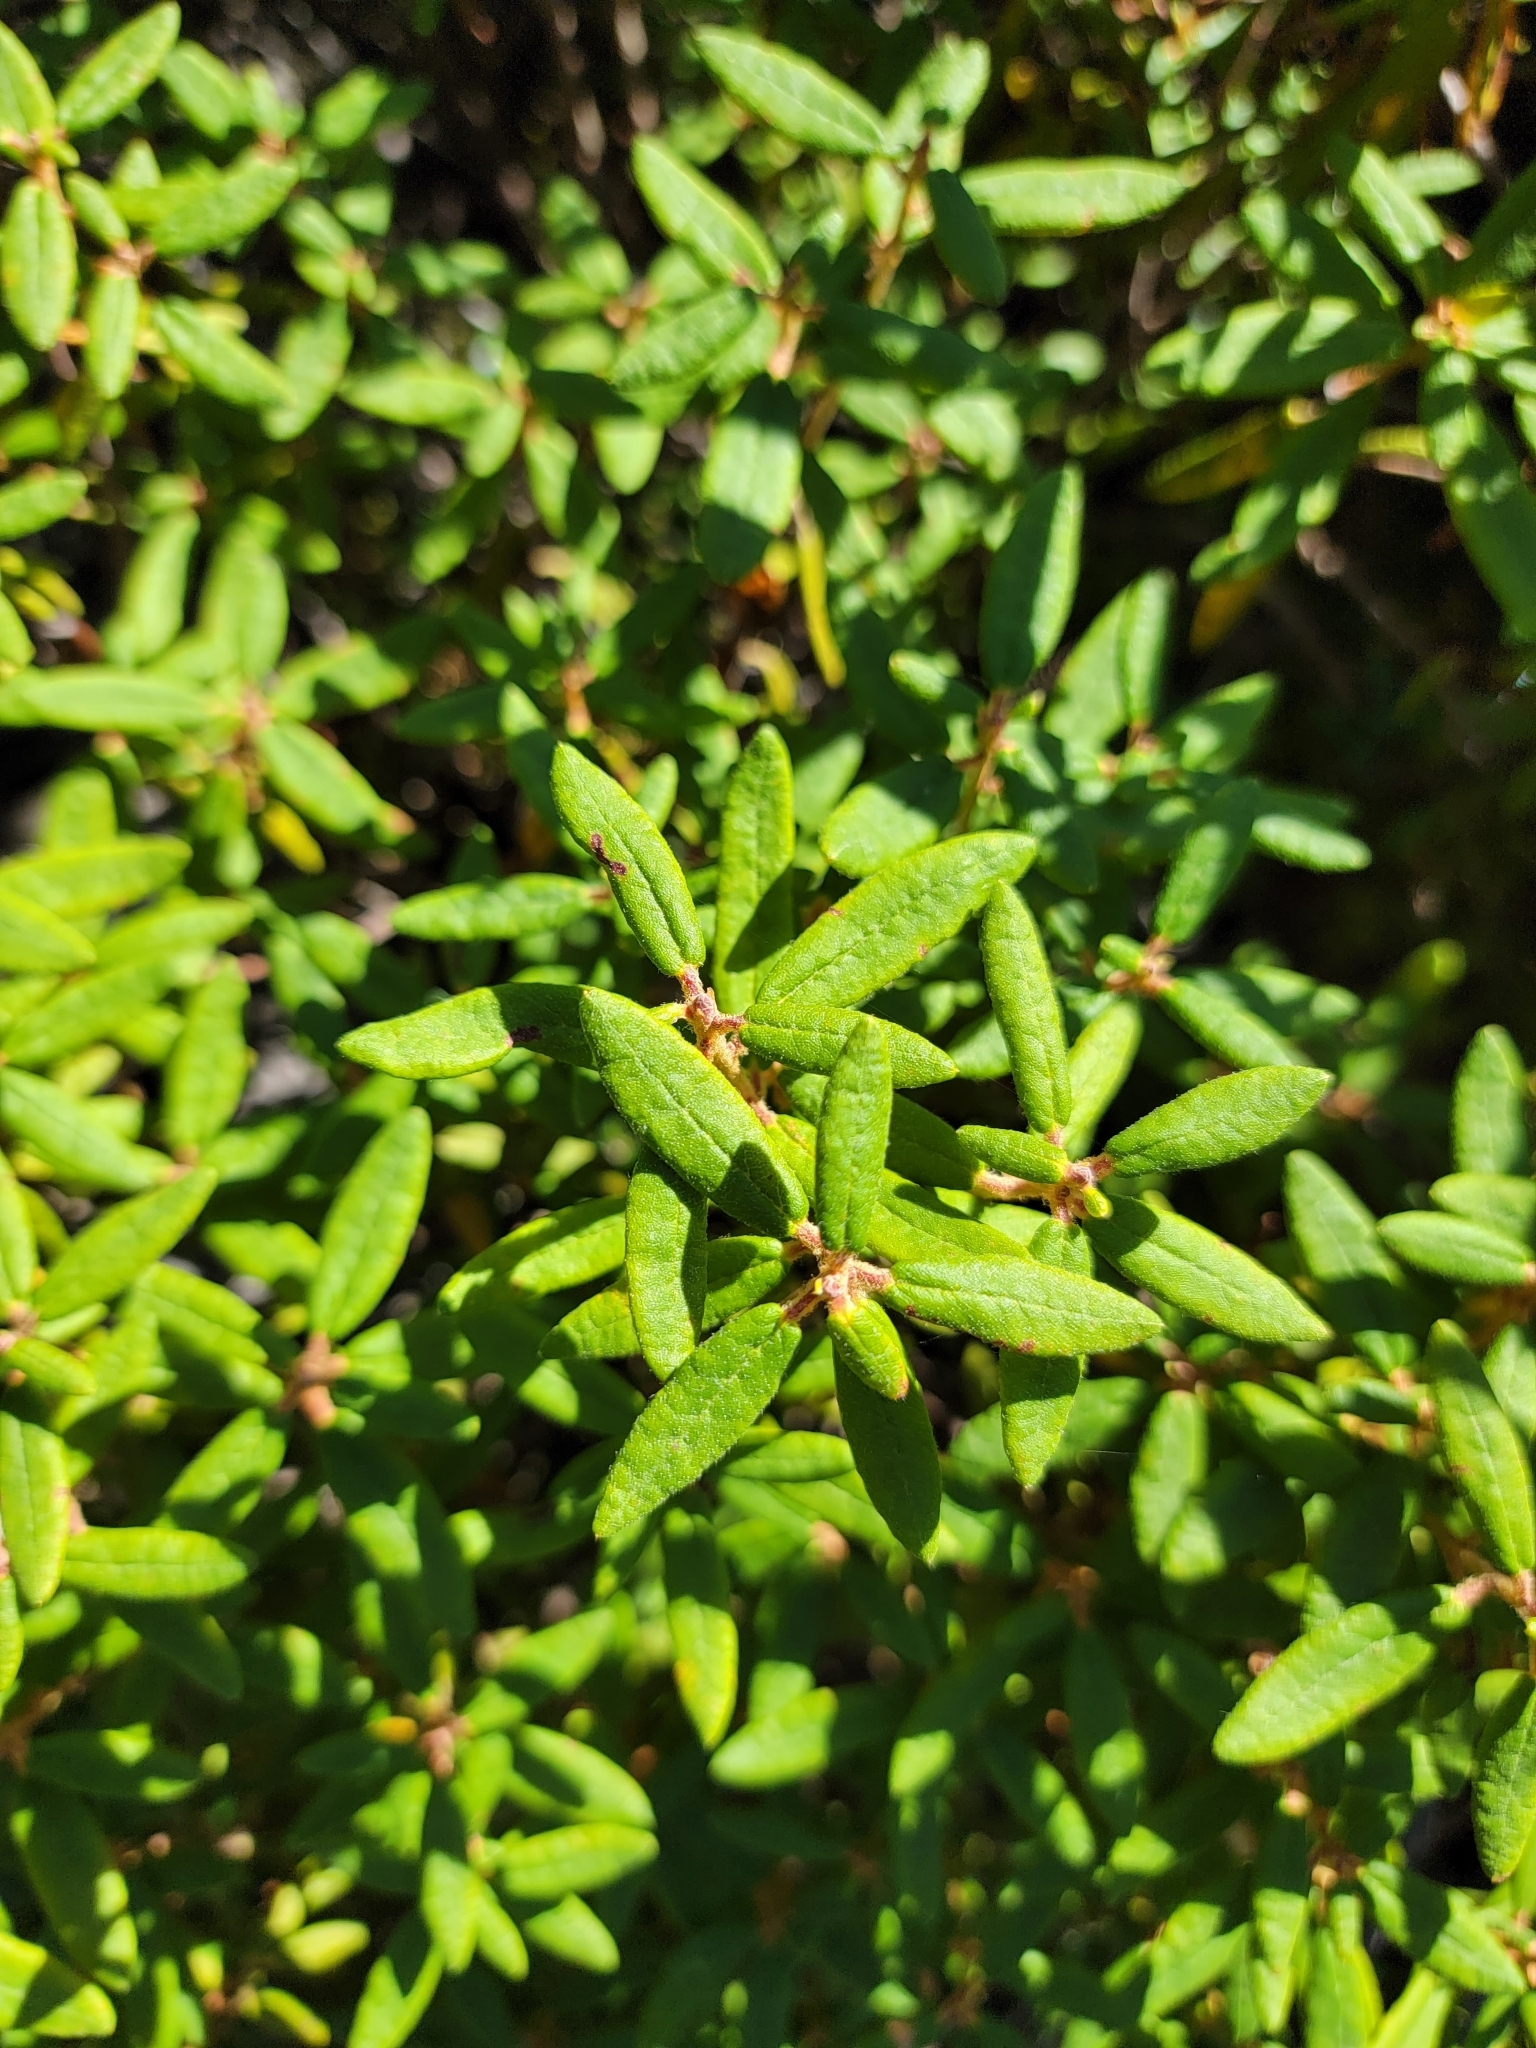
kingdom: Plantae
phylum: Tracheophyta
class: Magnoliopsida
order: Ericales
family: Ericaceae
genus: Rhododendron
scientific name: Rhododendron groenlandicum
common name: Bog labrador tea
